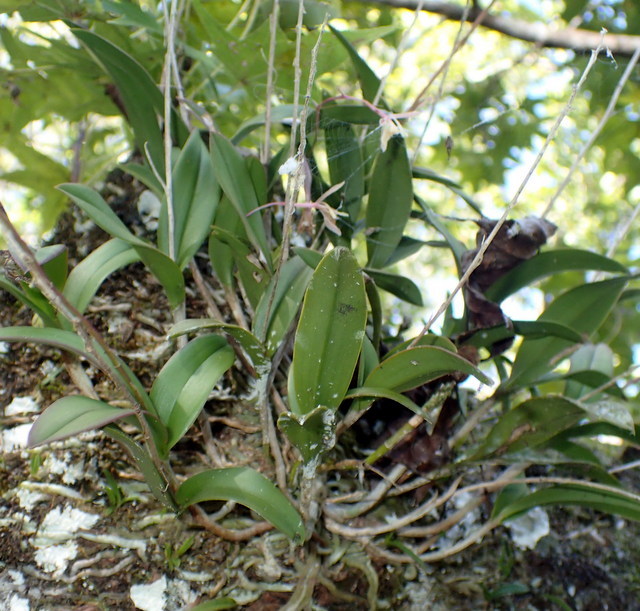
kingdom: Plantae
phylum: Tracheophyta
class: Liliopsida
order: Asparagales
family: Orchidaceae
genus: Epidendrum
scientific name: Epidendrum conopseum
